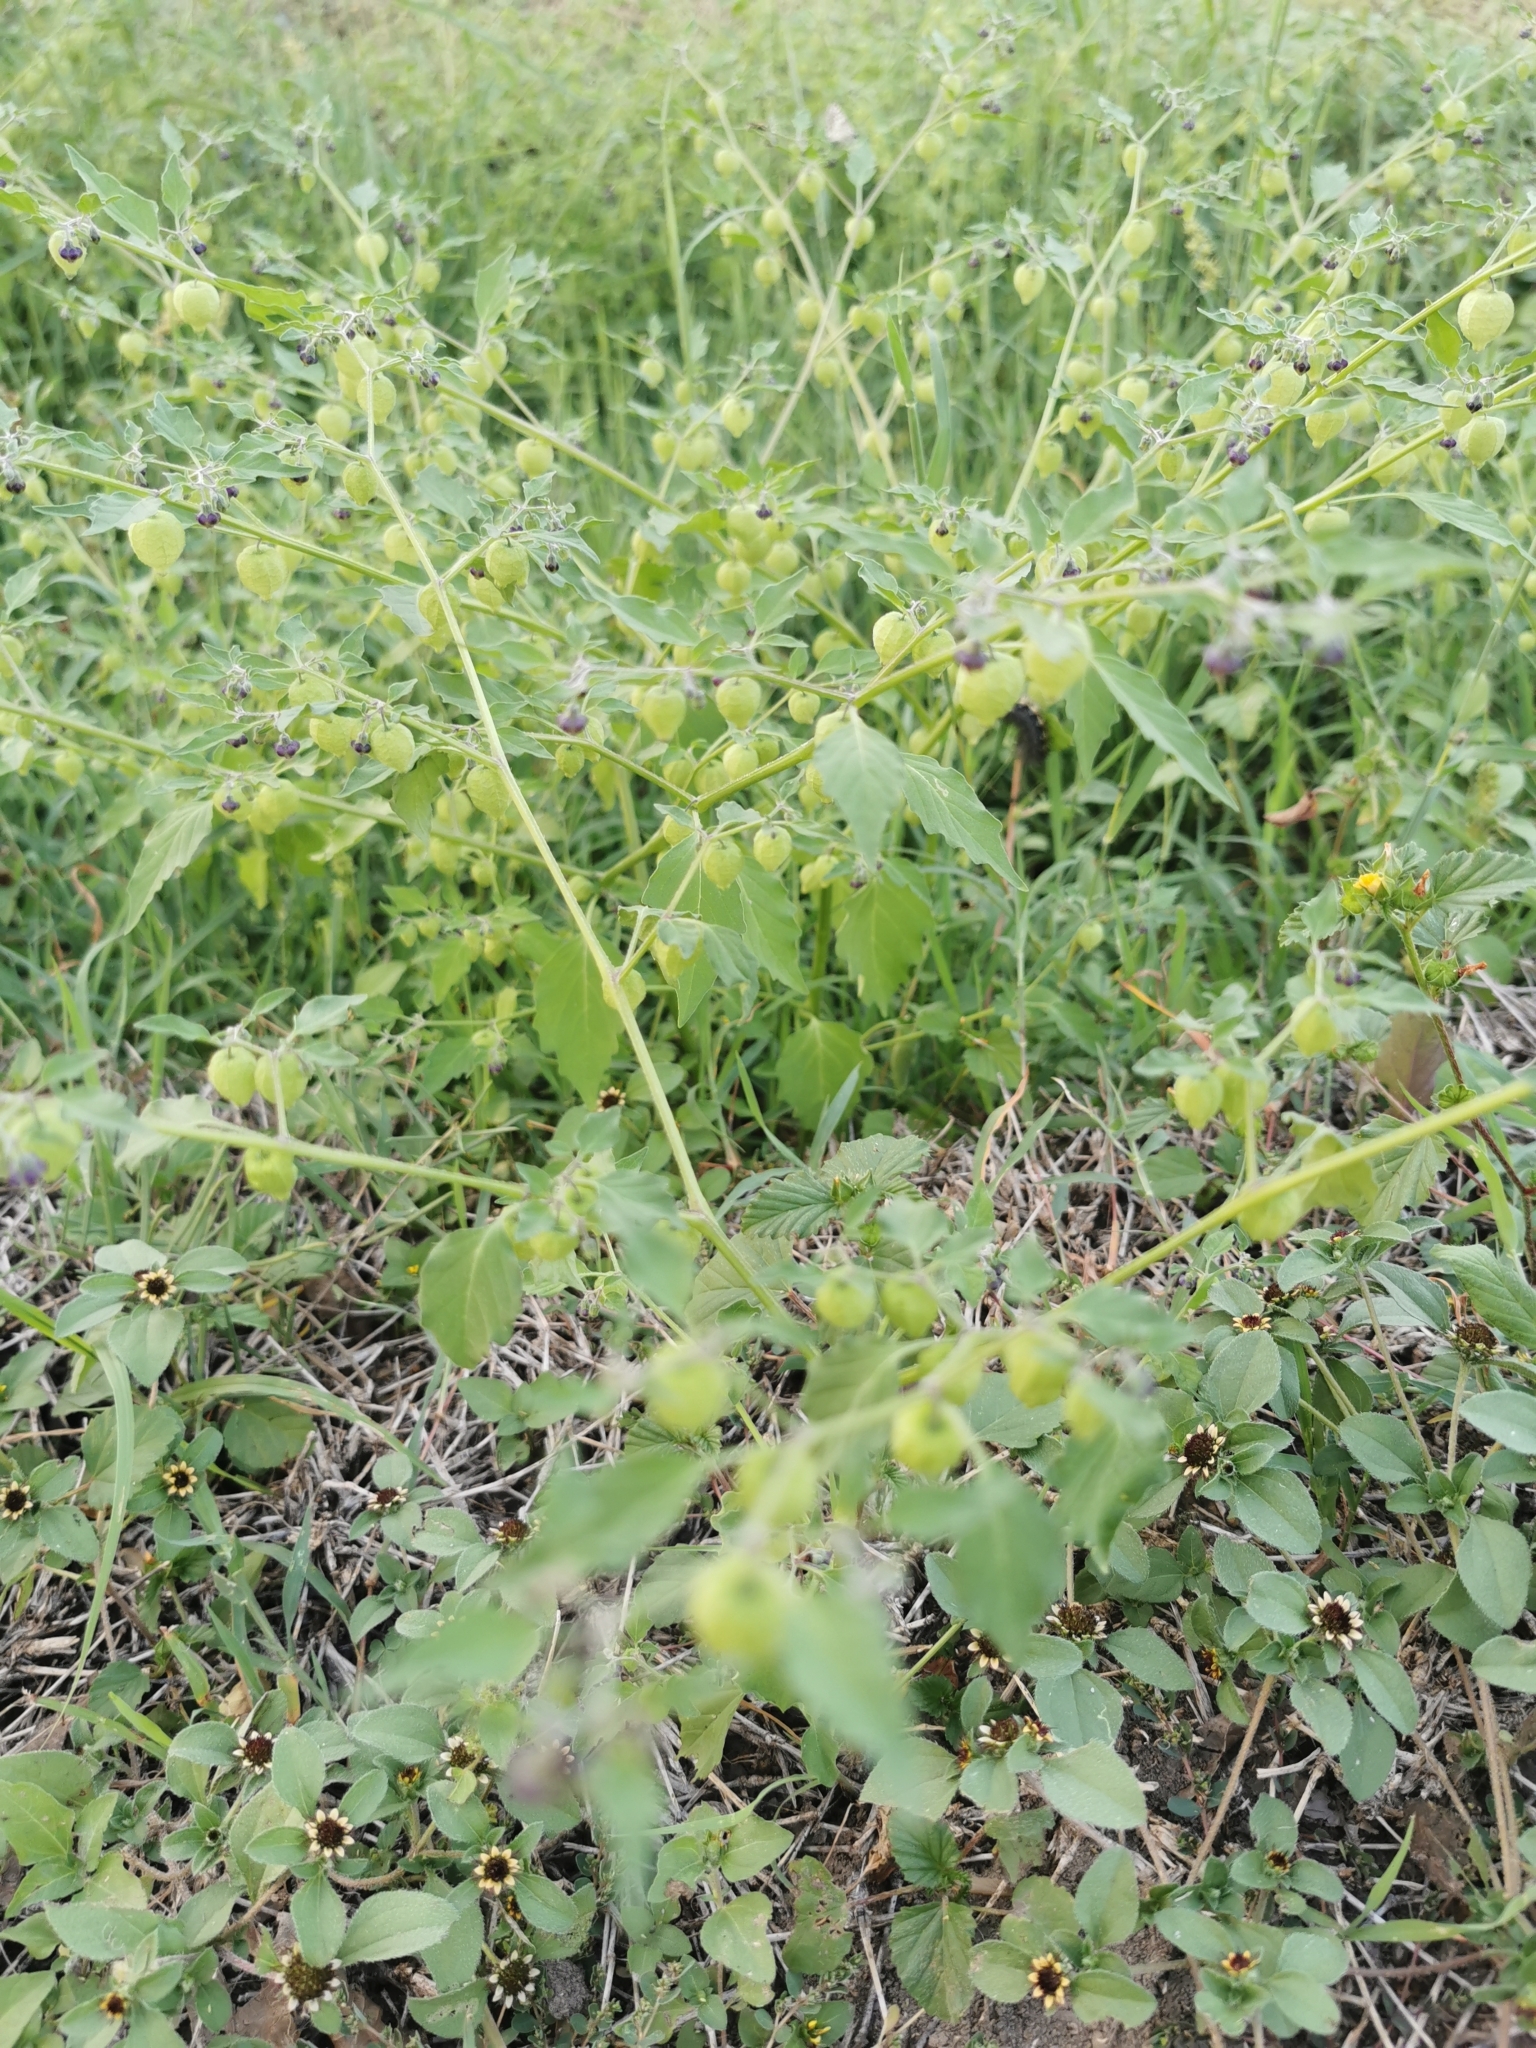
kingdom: Plantae
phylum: Tracheophyta
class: Magnoliopsida
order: Solanales
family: Solanaceae
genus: Physalis
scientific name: Physalis solanacea
